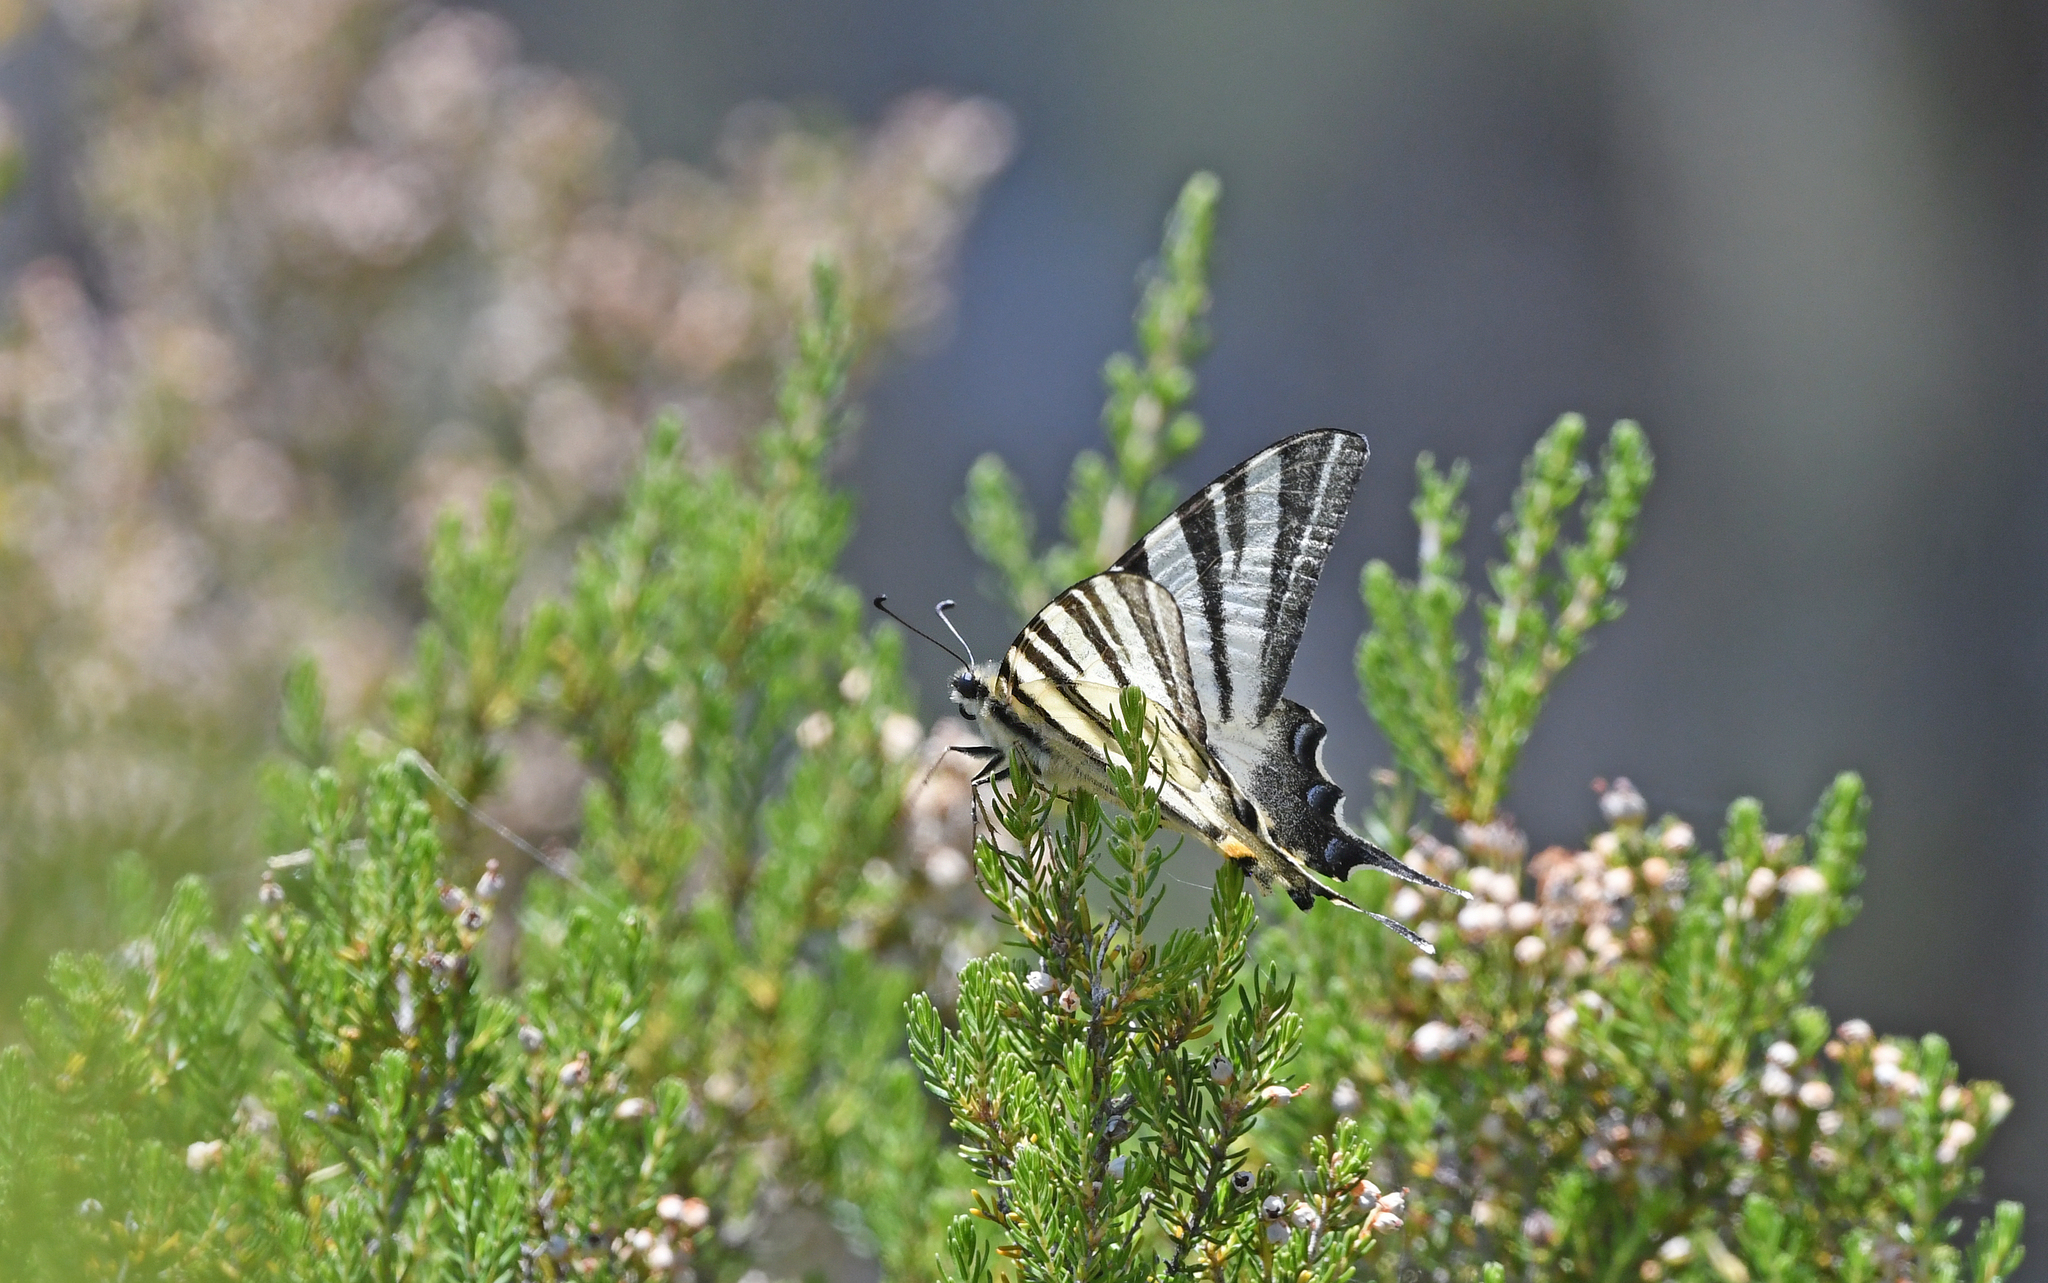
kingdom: Animalia
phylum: Arthropoda
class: Insecta
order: Lepidoptera
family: Papilionidae
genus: Iphiclides
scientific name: Iphiclides podalirius
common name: Scarce swallowtail
